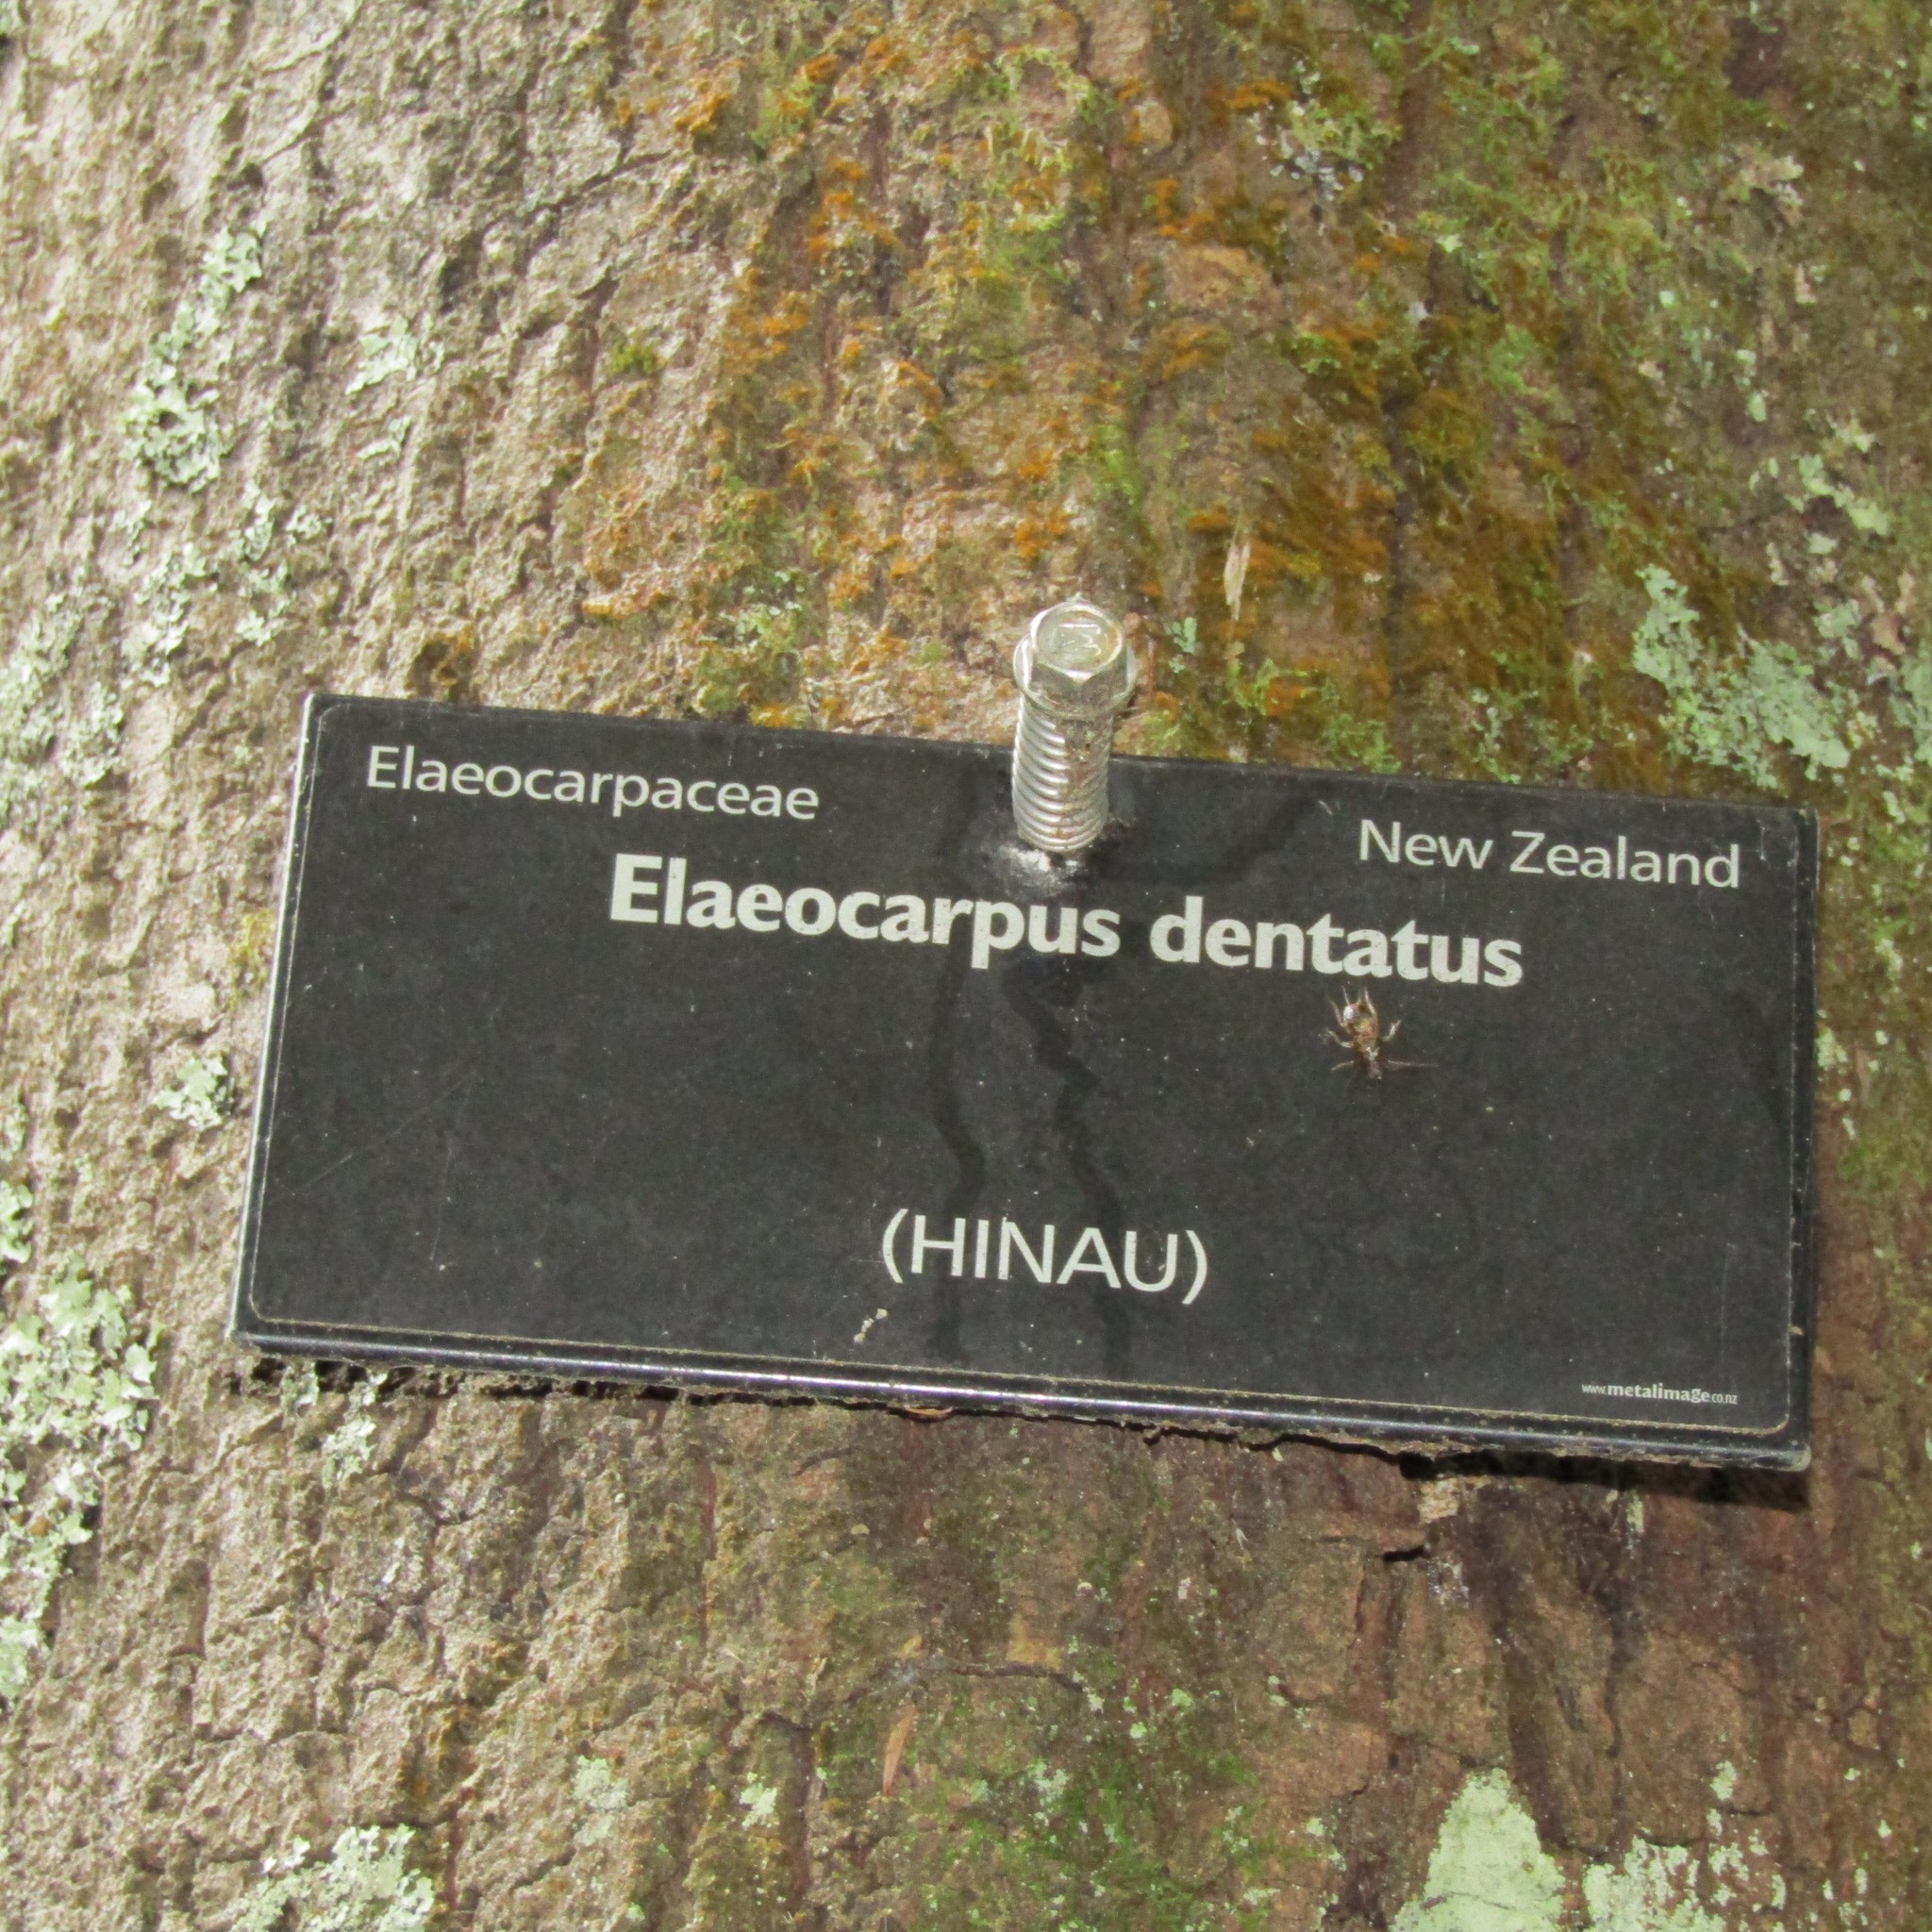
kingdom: Plantae
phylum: Tracheophyta
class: Magnoliopsida
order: Oxalidales
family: Elaeocarpaceae
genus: Elaeocarpus
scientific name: Elaeocarpus dentatus
